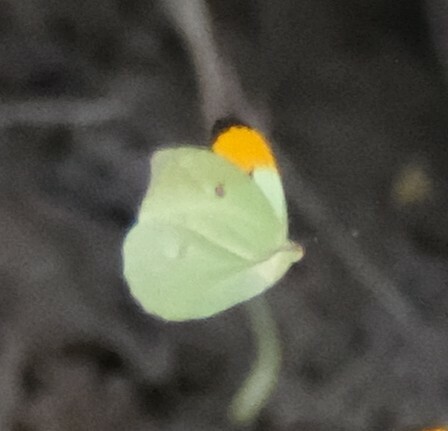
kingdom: Animalia
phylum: Arthropoda
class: Insecta
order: Lepidoptera
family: Pieridae
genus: Anteos
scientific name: Anteos menippe
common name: Orangetip angled-sulphur
